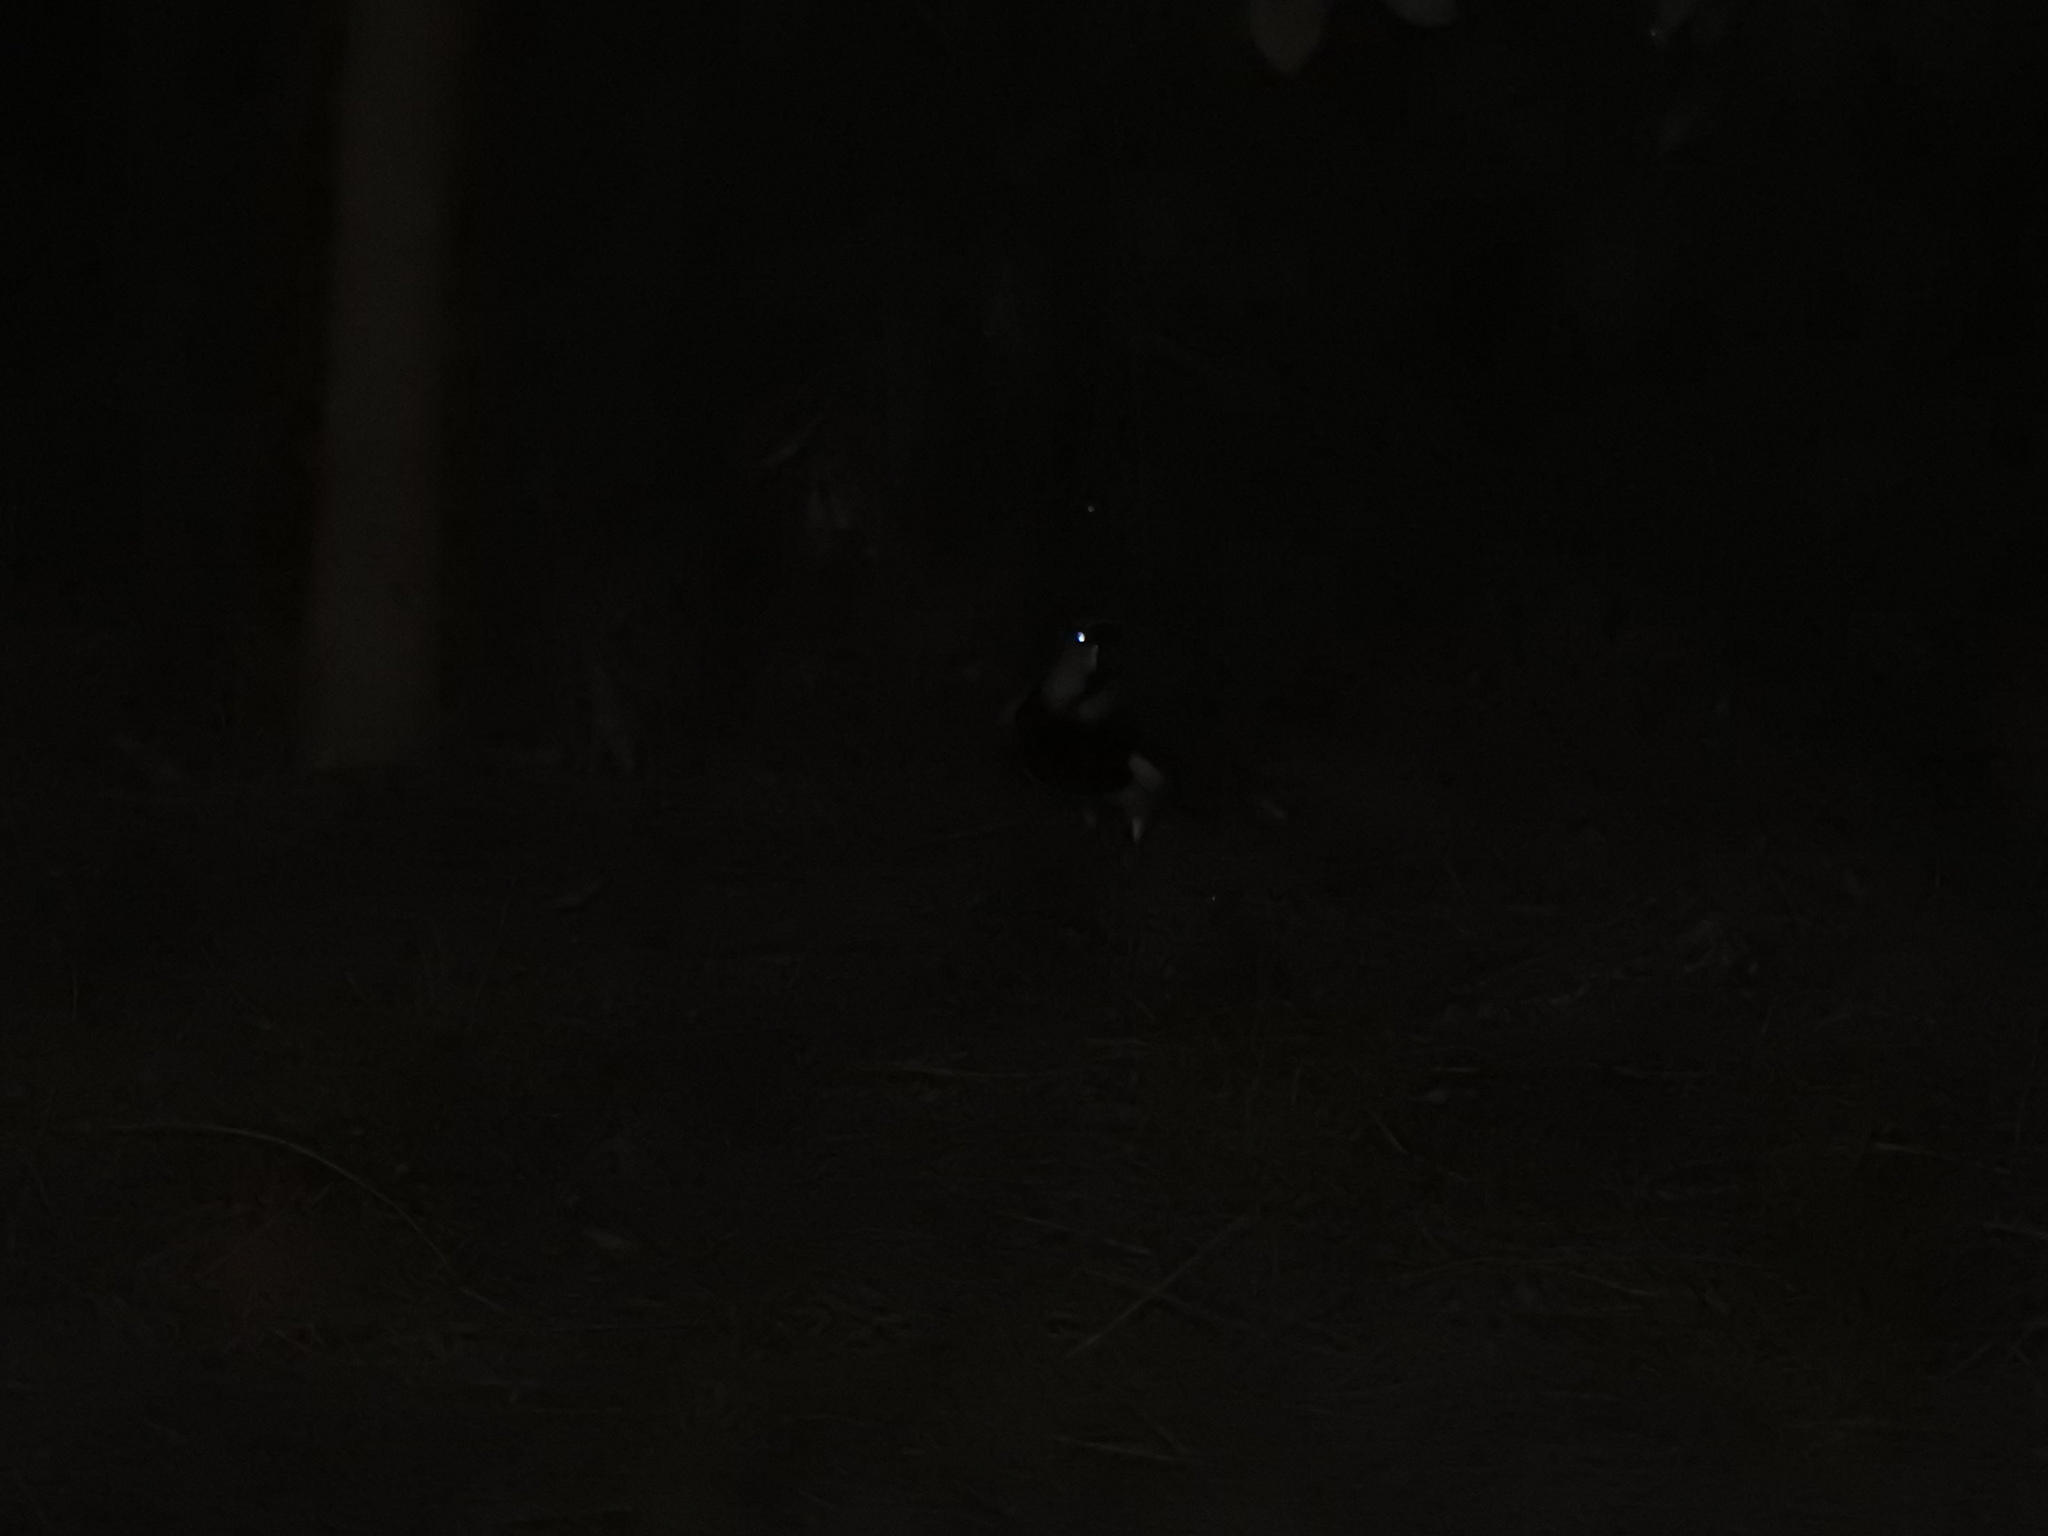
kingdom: Animalia
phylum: Chordata
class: Aves
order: Charadriiformes
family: Charadriidae
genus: Vanellus
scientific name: Vanellus chilensis
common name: Southern lapwing
